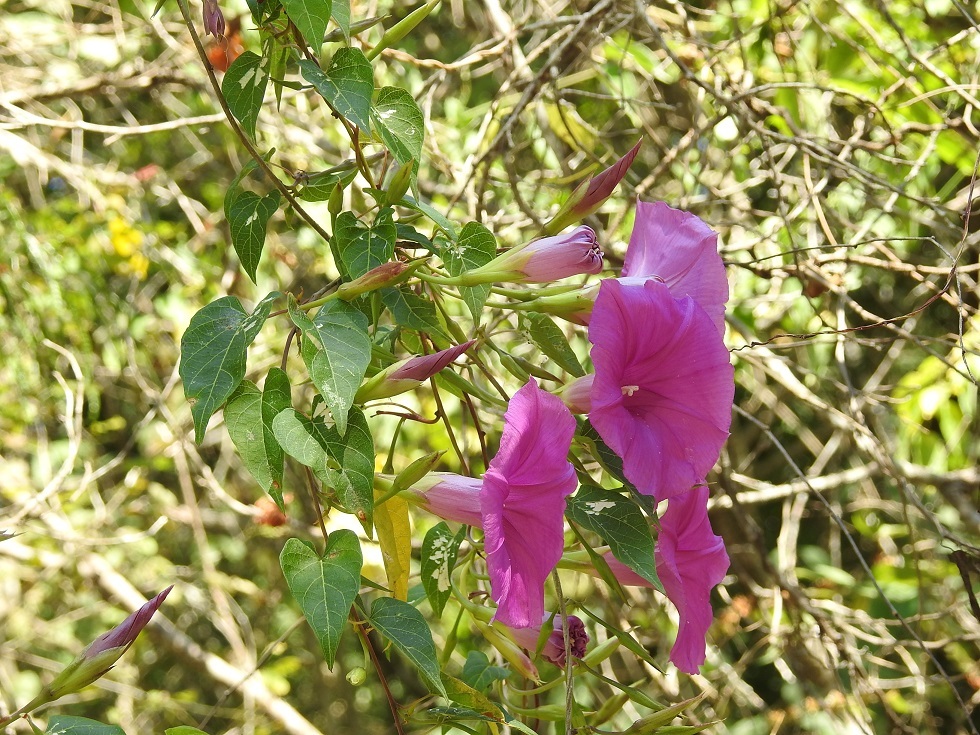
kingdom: Plantae
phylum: Tracheophyta
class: Magnoliopsida
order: Solanales
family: Convolvulaceae
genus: Ipomoea
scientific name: Ipomoea bernoulliana
